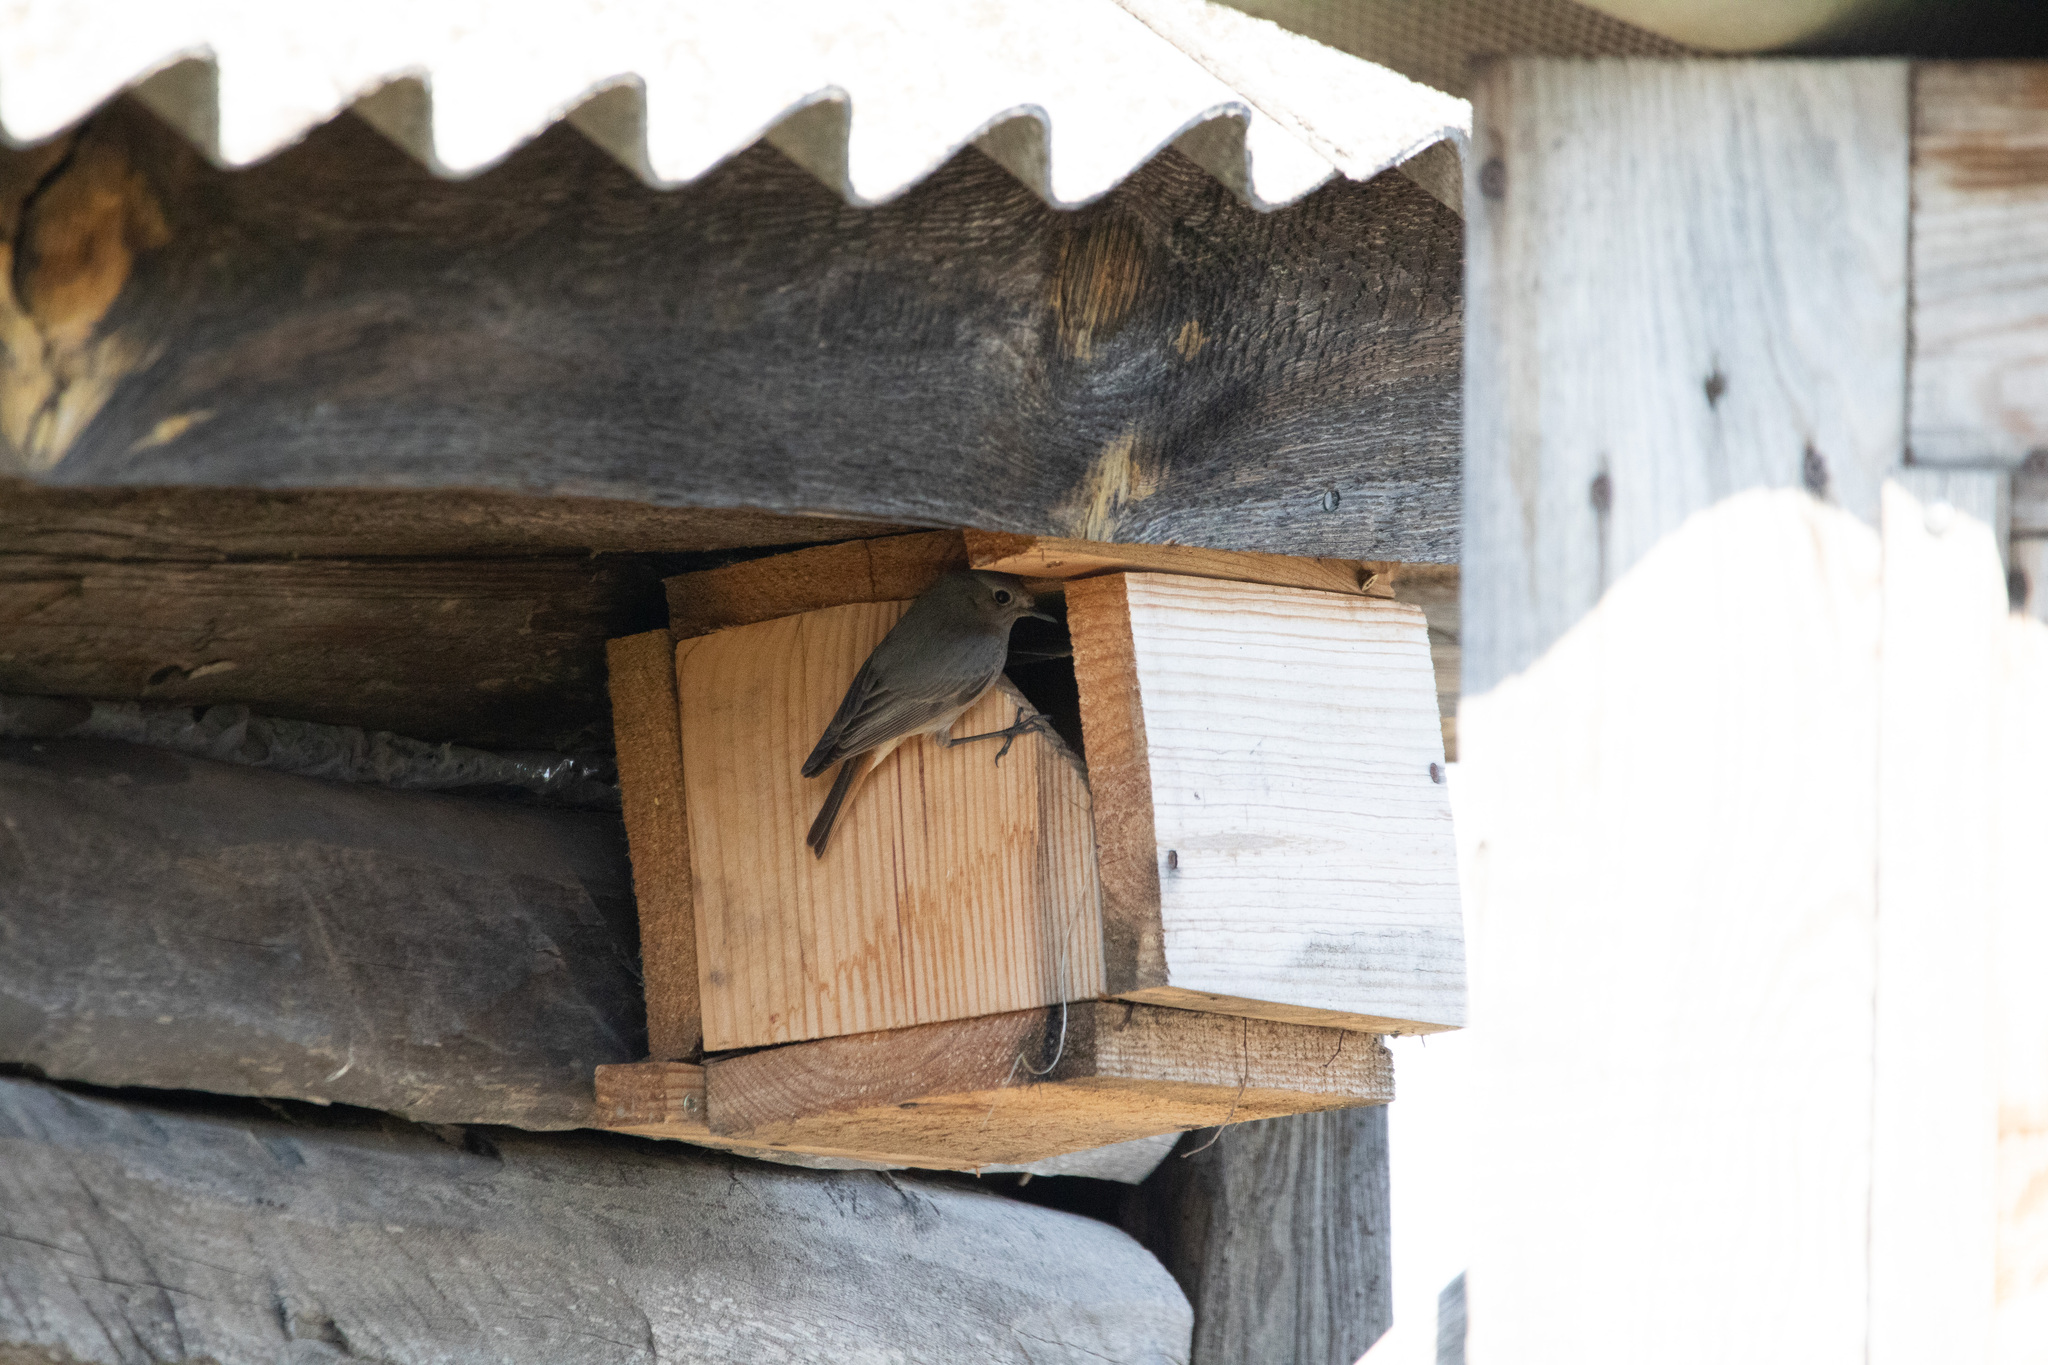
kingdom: Animalia
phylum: Chordata
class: Aves
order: Passeriformes
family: Muscicapidae
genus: Phoenicurus
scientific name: Phoenicurus ochruros
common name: Black redstart
